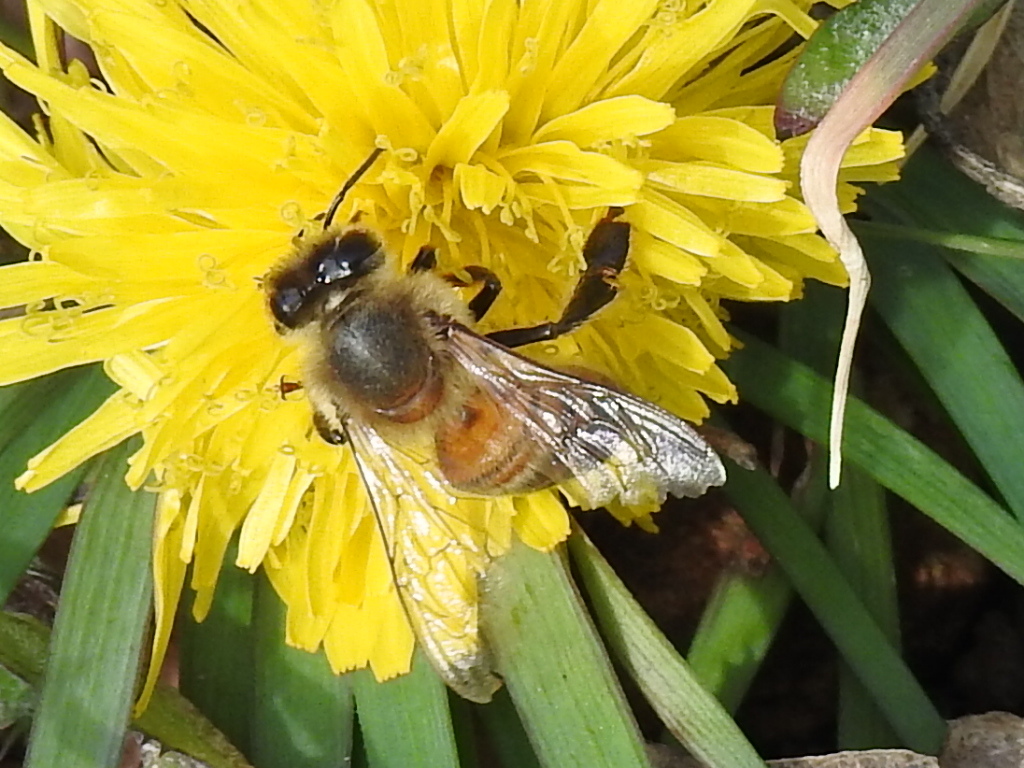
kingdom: Animalia
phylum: Arthropoda
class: Insecta
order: Hymenoptera
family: Apidae
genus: Apis
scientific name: Apis mellifera
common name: Honey bee
